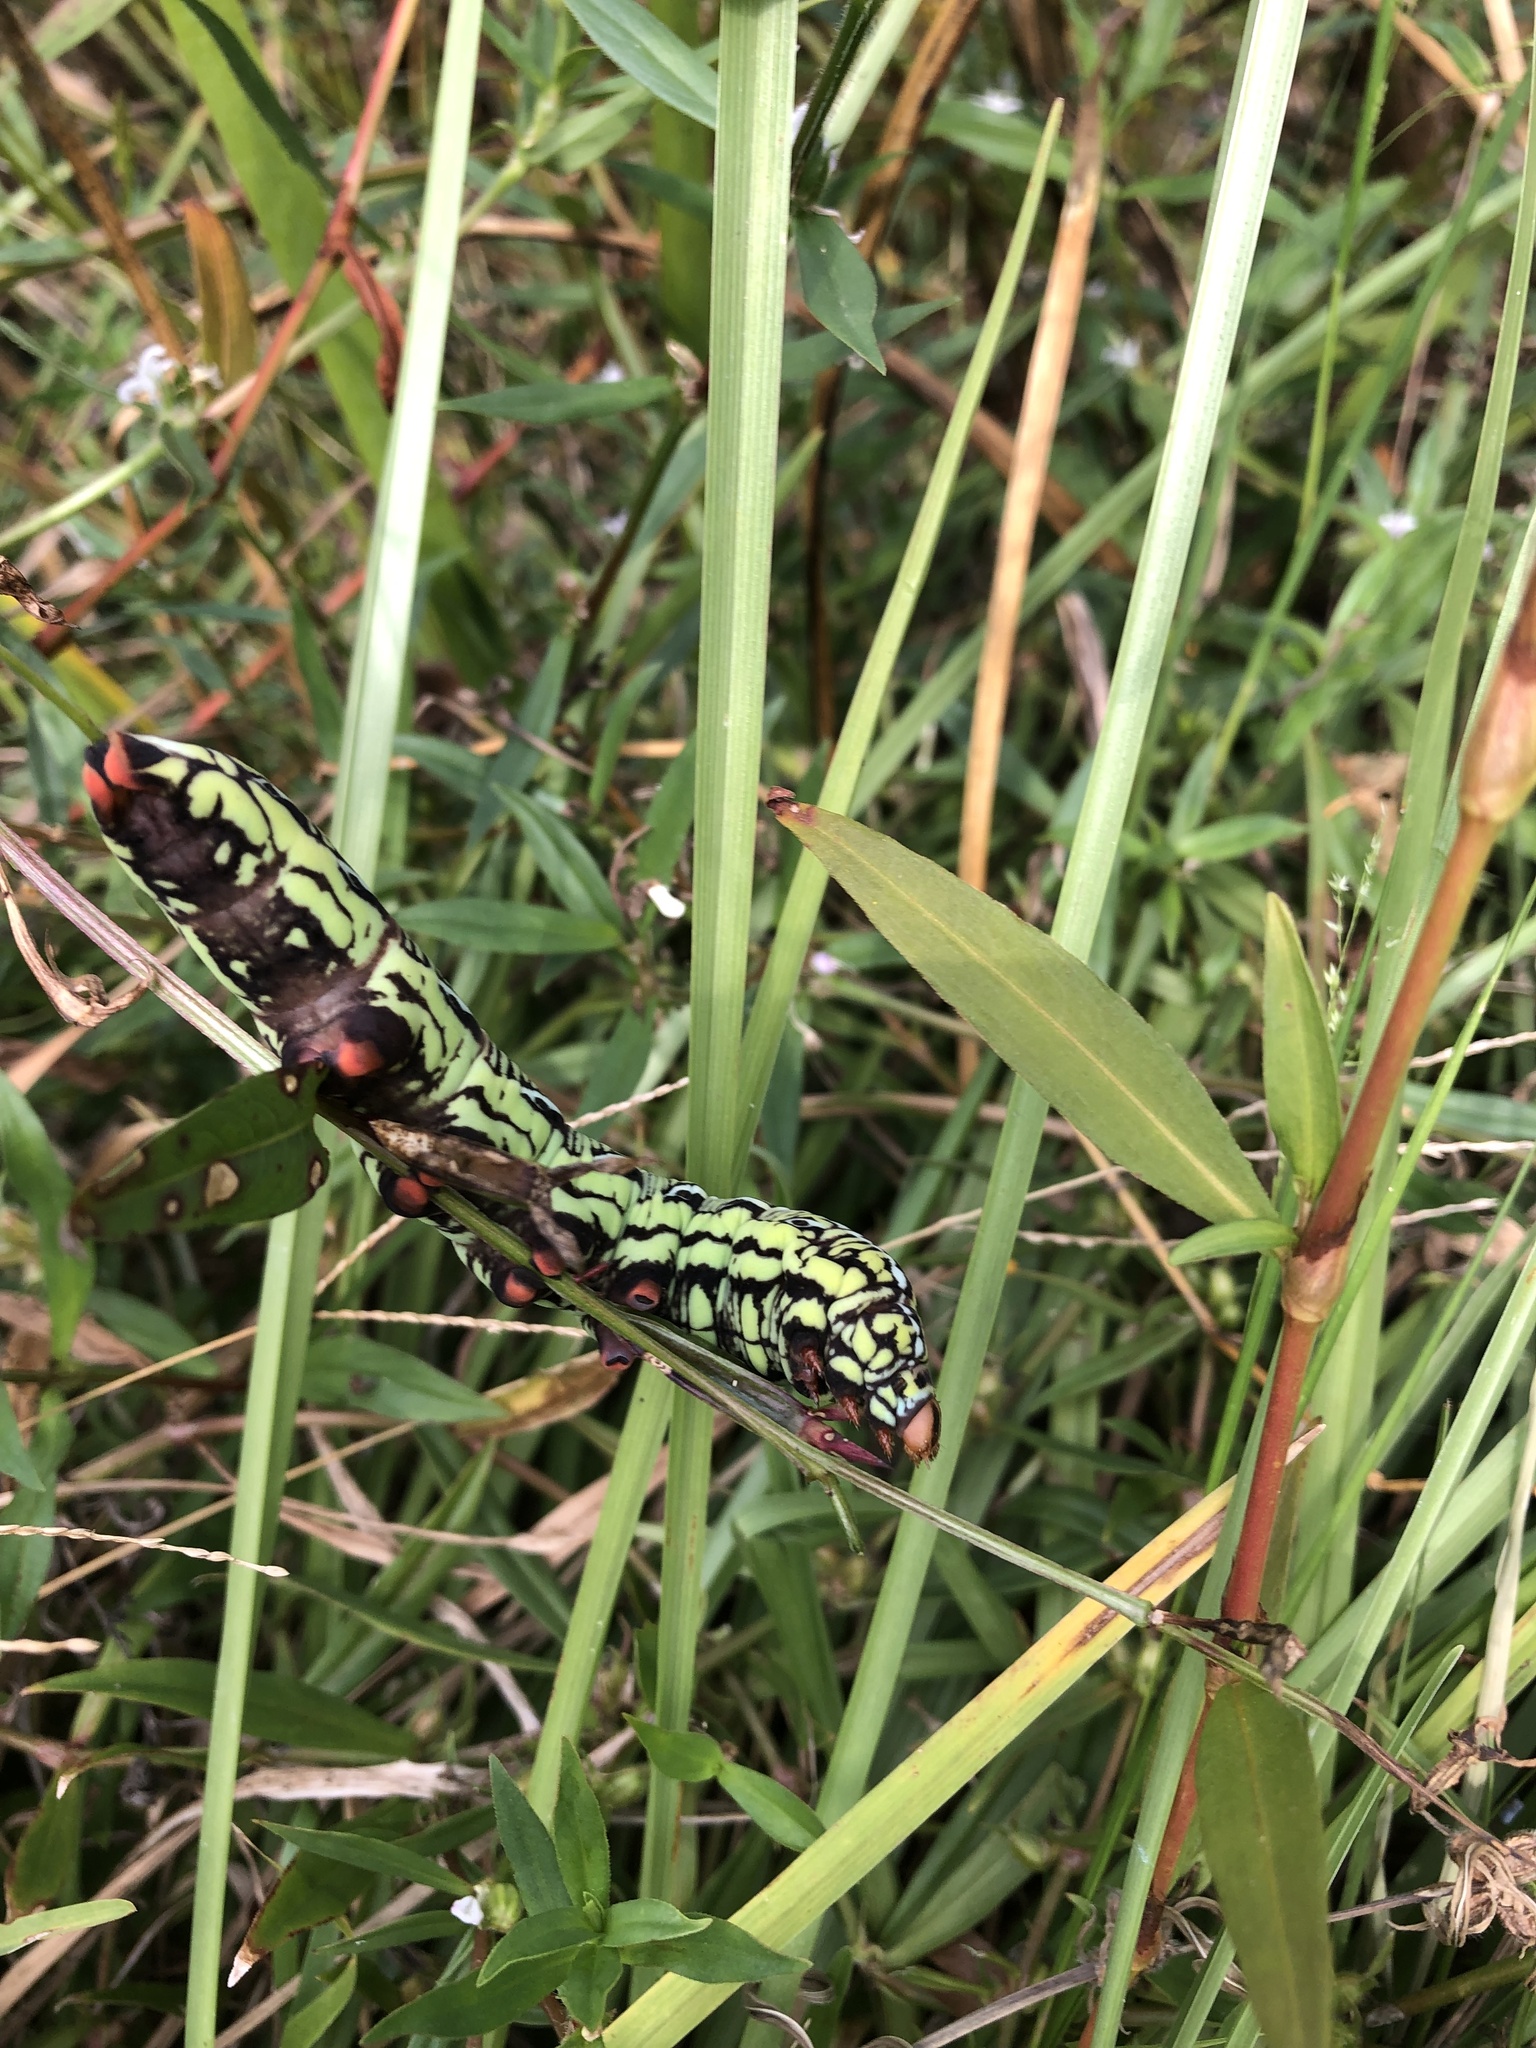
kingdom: Animalia
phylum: Arthropoda
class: Insecta
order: Lepidoptera
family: Sphingidae
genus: Eumorpha
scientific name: Eumorpha fasciatus
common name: Banded sphinx
